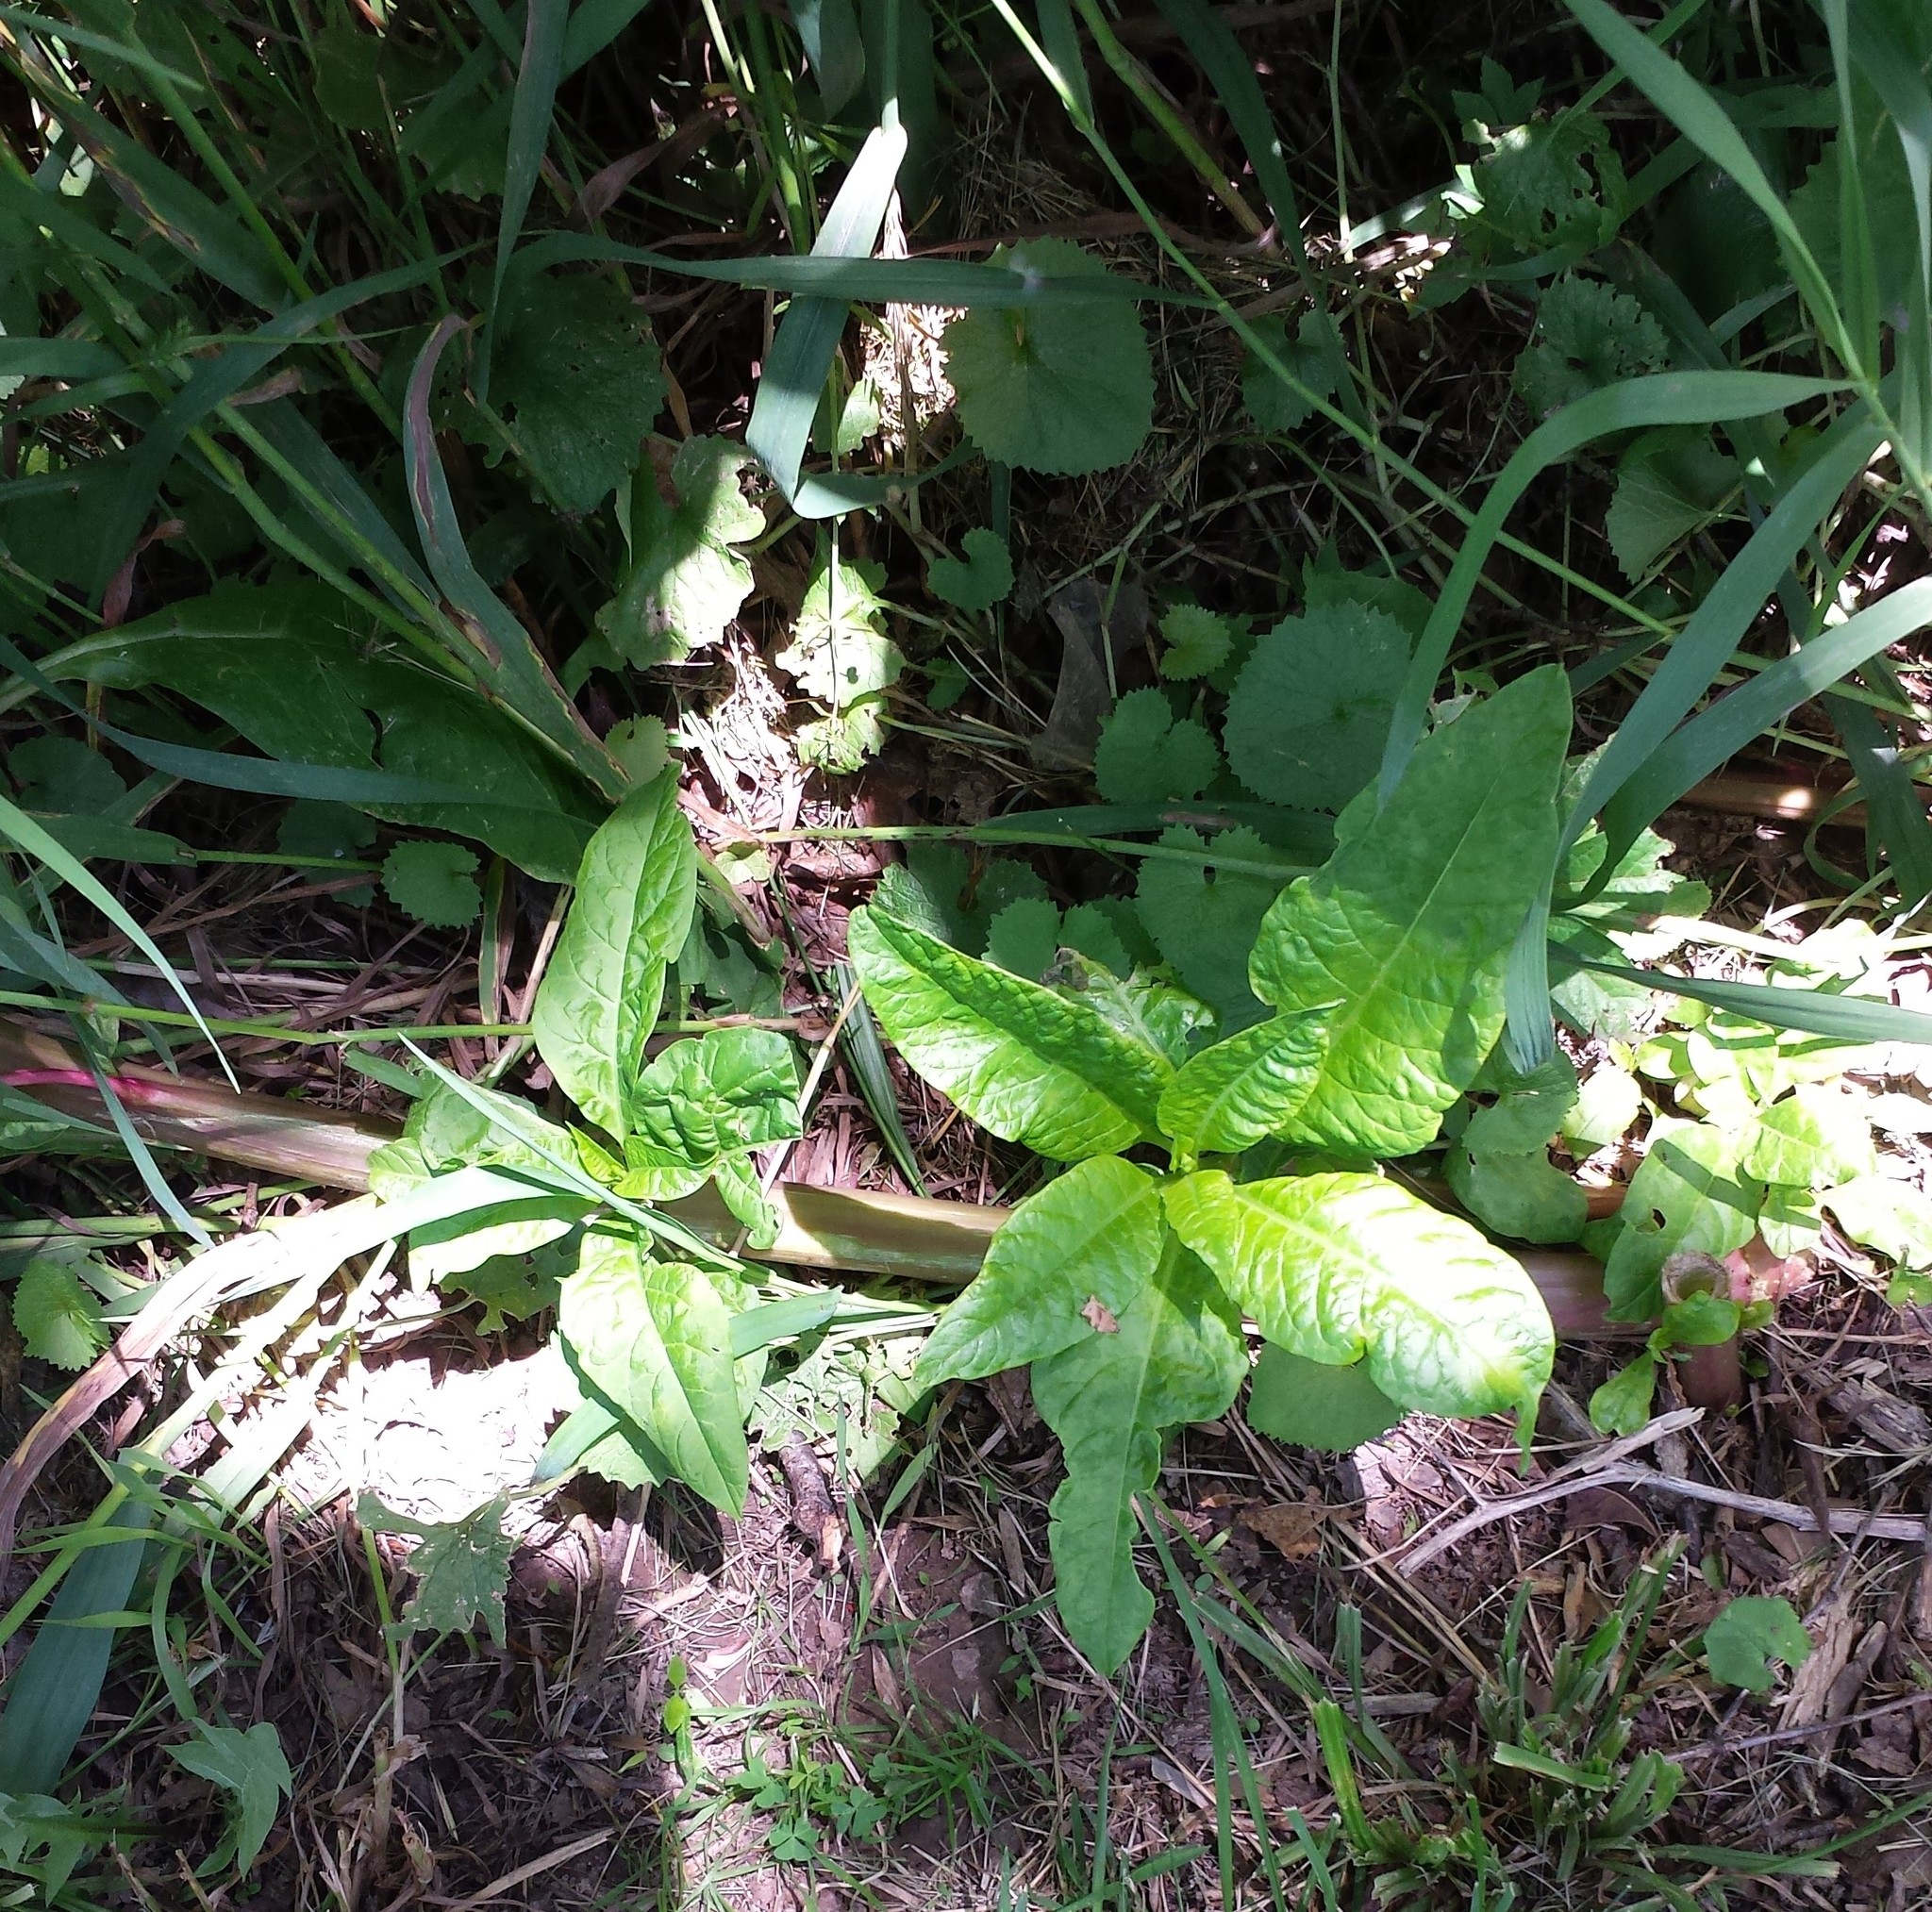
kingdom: Plantae
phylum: Tracheophyta
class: Magnoliopsida
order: Brassicales
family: Brassicaceae
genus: Alliaria
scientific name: Alliaria petiolata
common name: Garlic mustard
